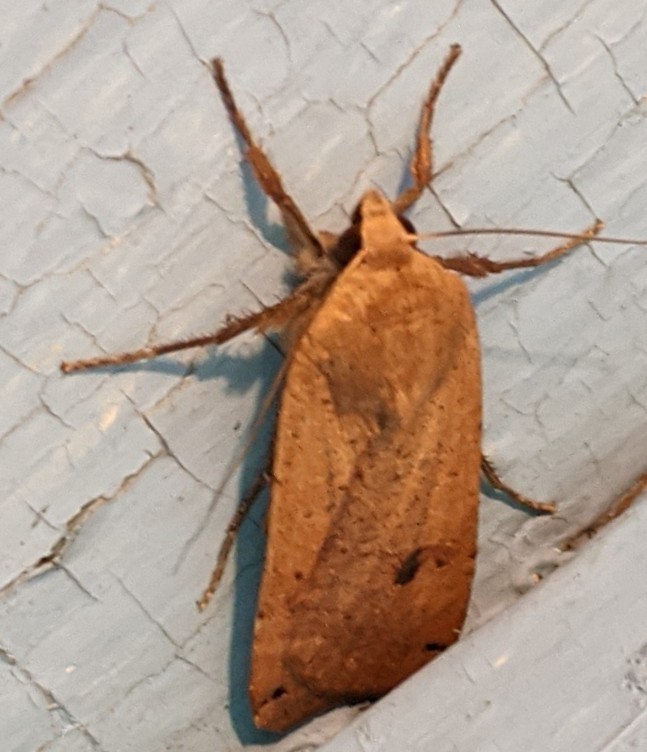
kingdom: Animalia
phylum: Arthropoda
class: Insecta
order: Lepidoptera
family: Noctuidae
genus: Noctua
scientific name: Noctua pronuba
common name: Large yellow underwing
